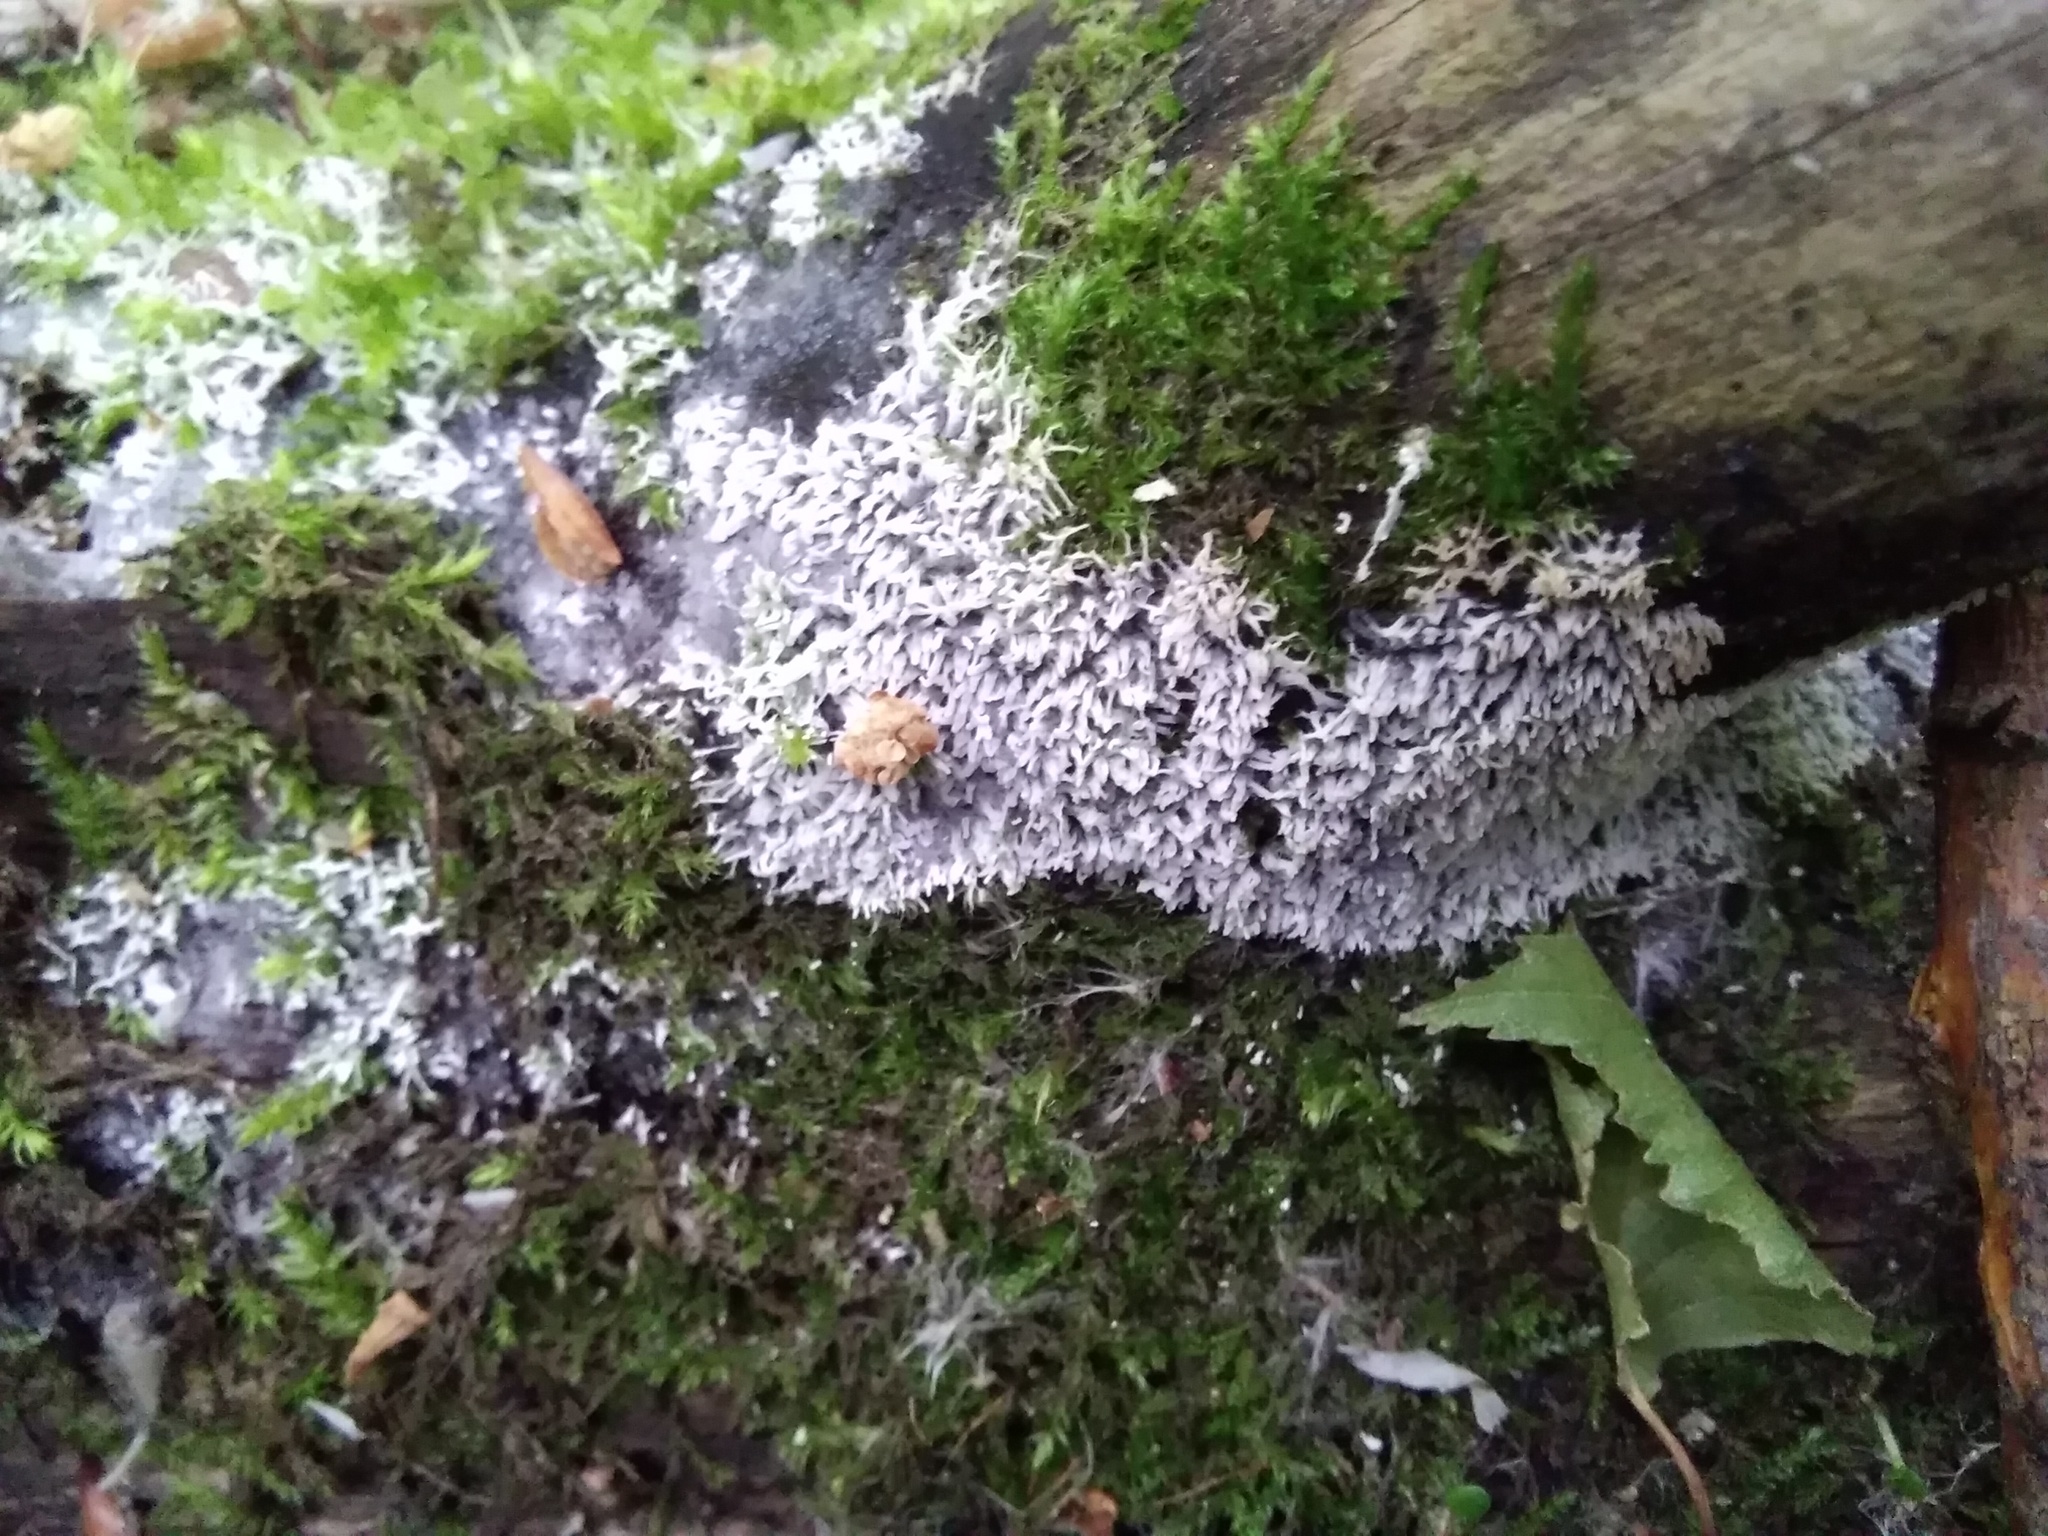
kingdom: Protozoa
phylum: Mycetozoa
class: Protosteliomycetes
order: Ceratiomyxales
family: Ceratiomyxaceae
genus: Ceratiomyxa
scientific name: Ceratiomyxa fruticulosa
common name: Honeycomb coral slime mold
